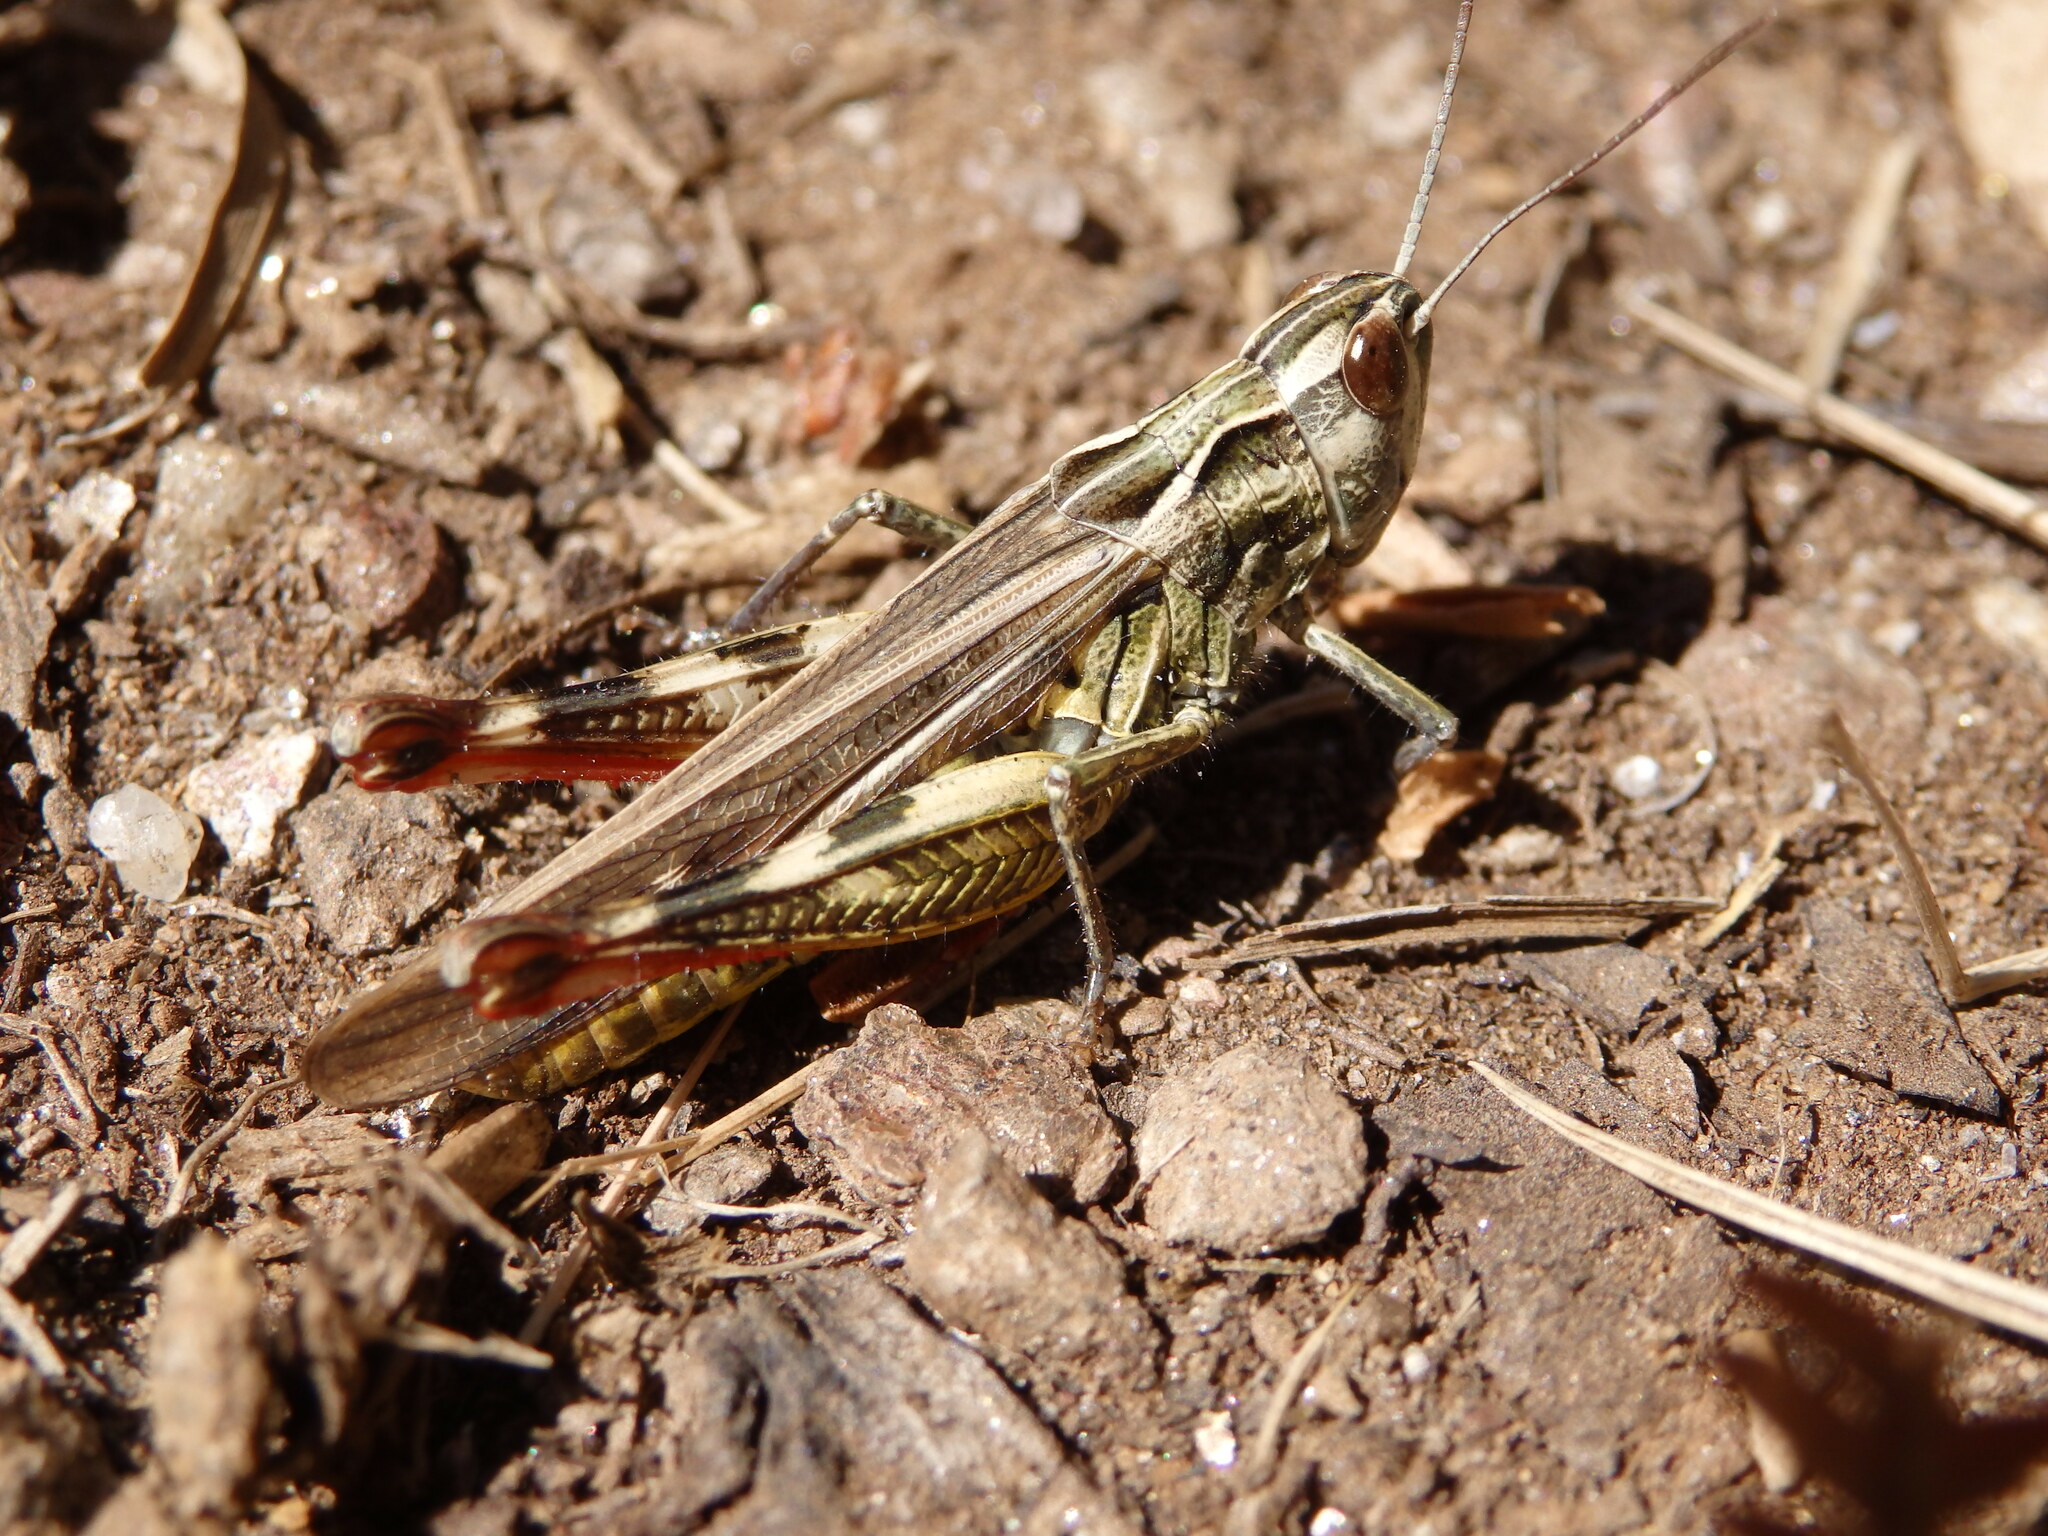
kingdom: Animalia
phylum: Arthropoda
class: Insecta
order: Orthoptera
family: Acrididae
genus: Chorthippus
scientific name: Chorthippus binotatus
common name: Two-marked grasshopper
